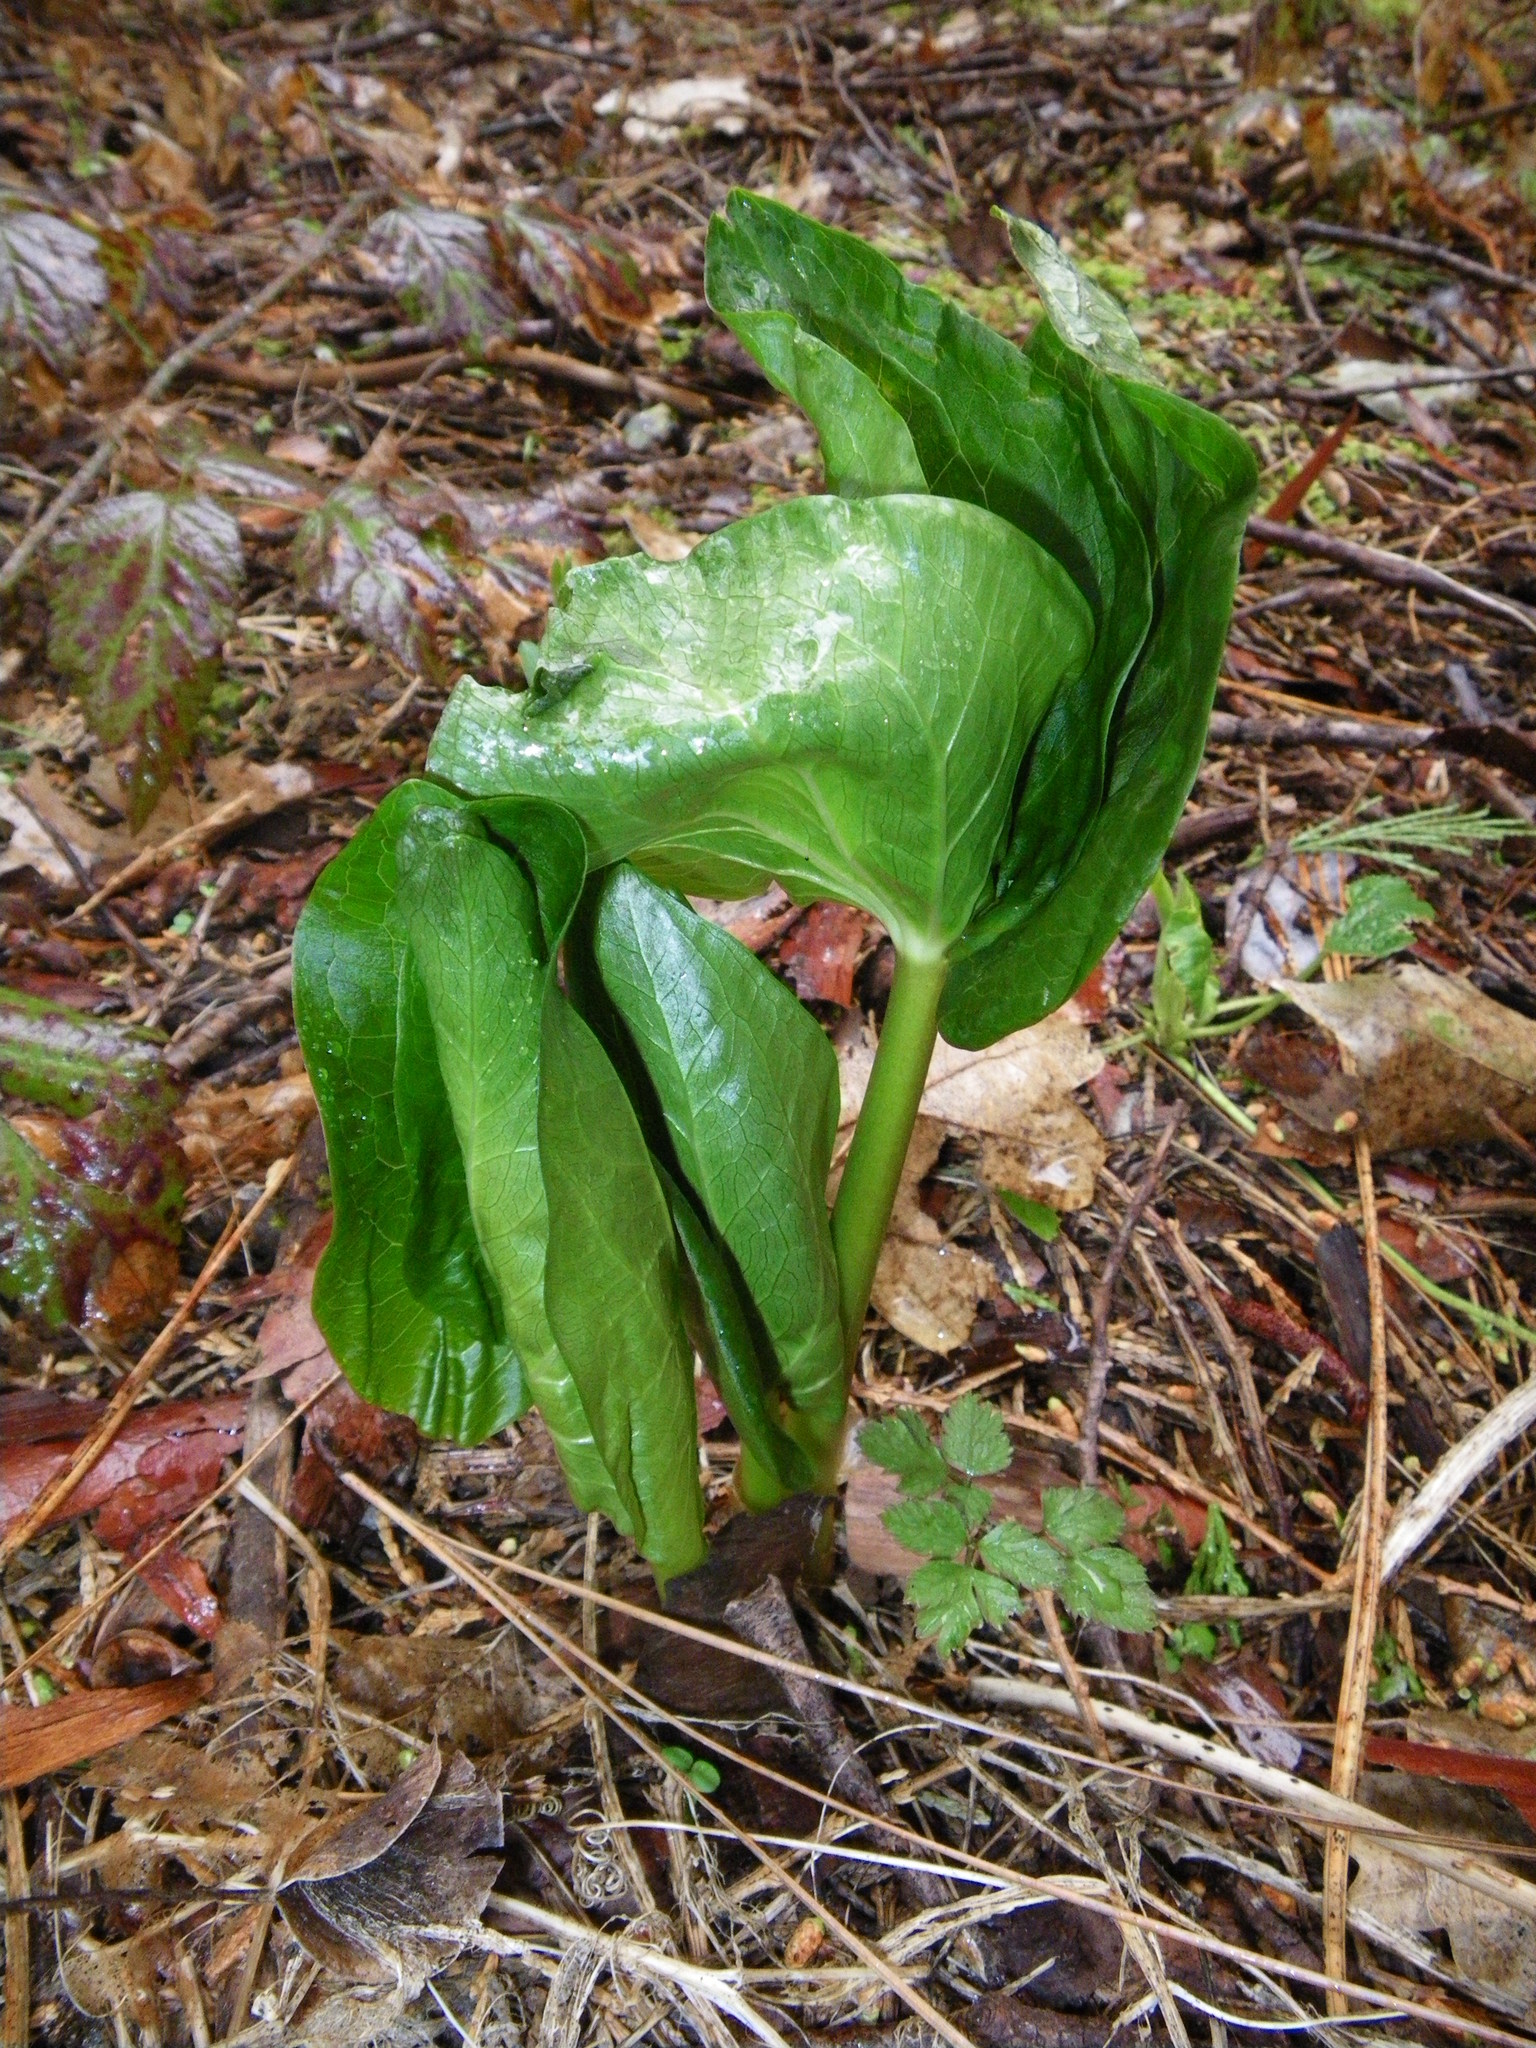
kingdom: Plantae
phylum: Tracheophyta
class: Liliopsida
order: Liliales
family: Melanthiaceae
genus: Trillium
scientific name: Trillium chloropetalum
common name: Giant trillium
